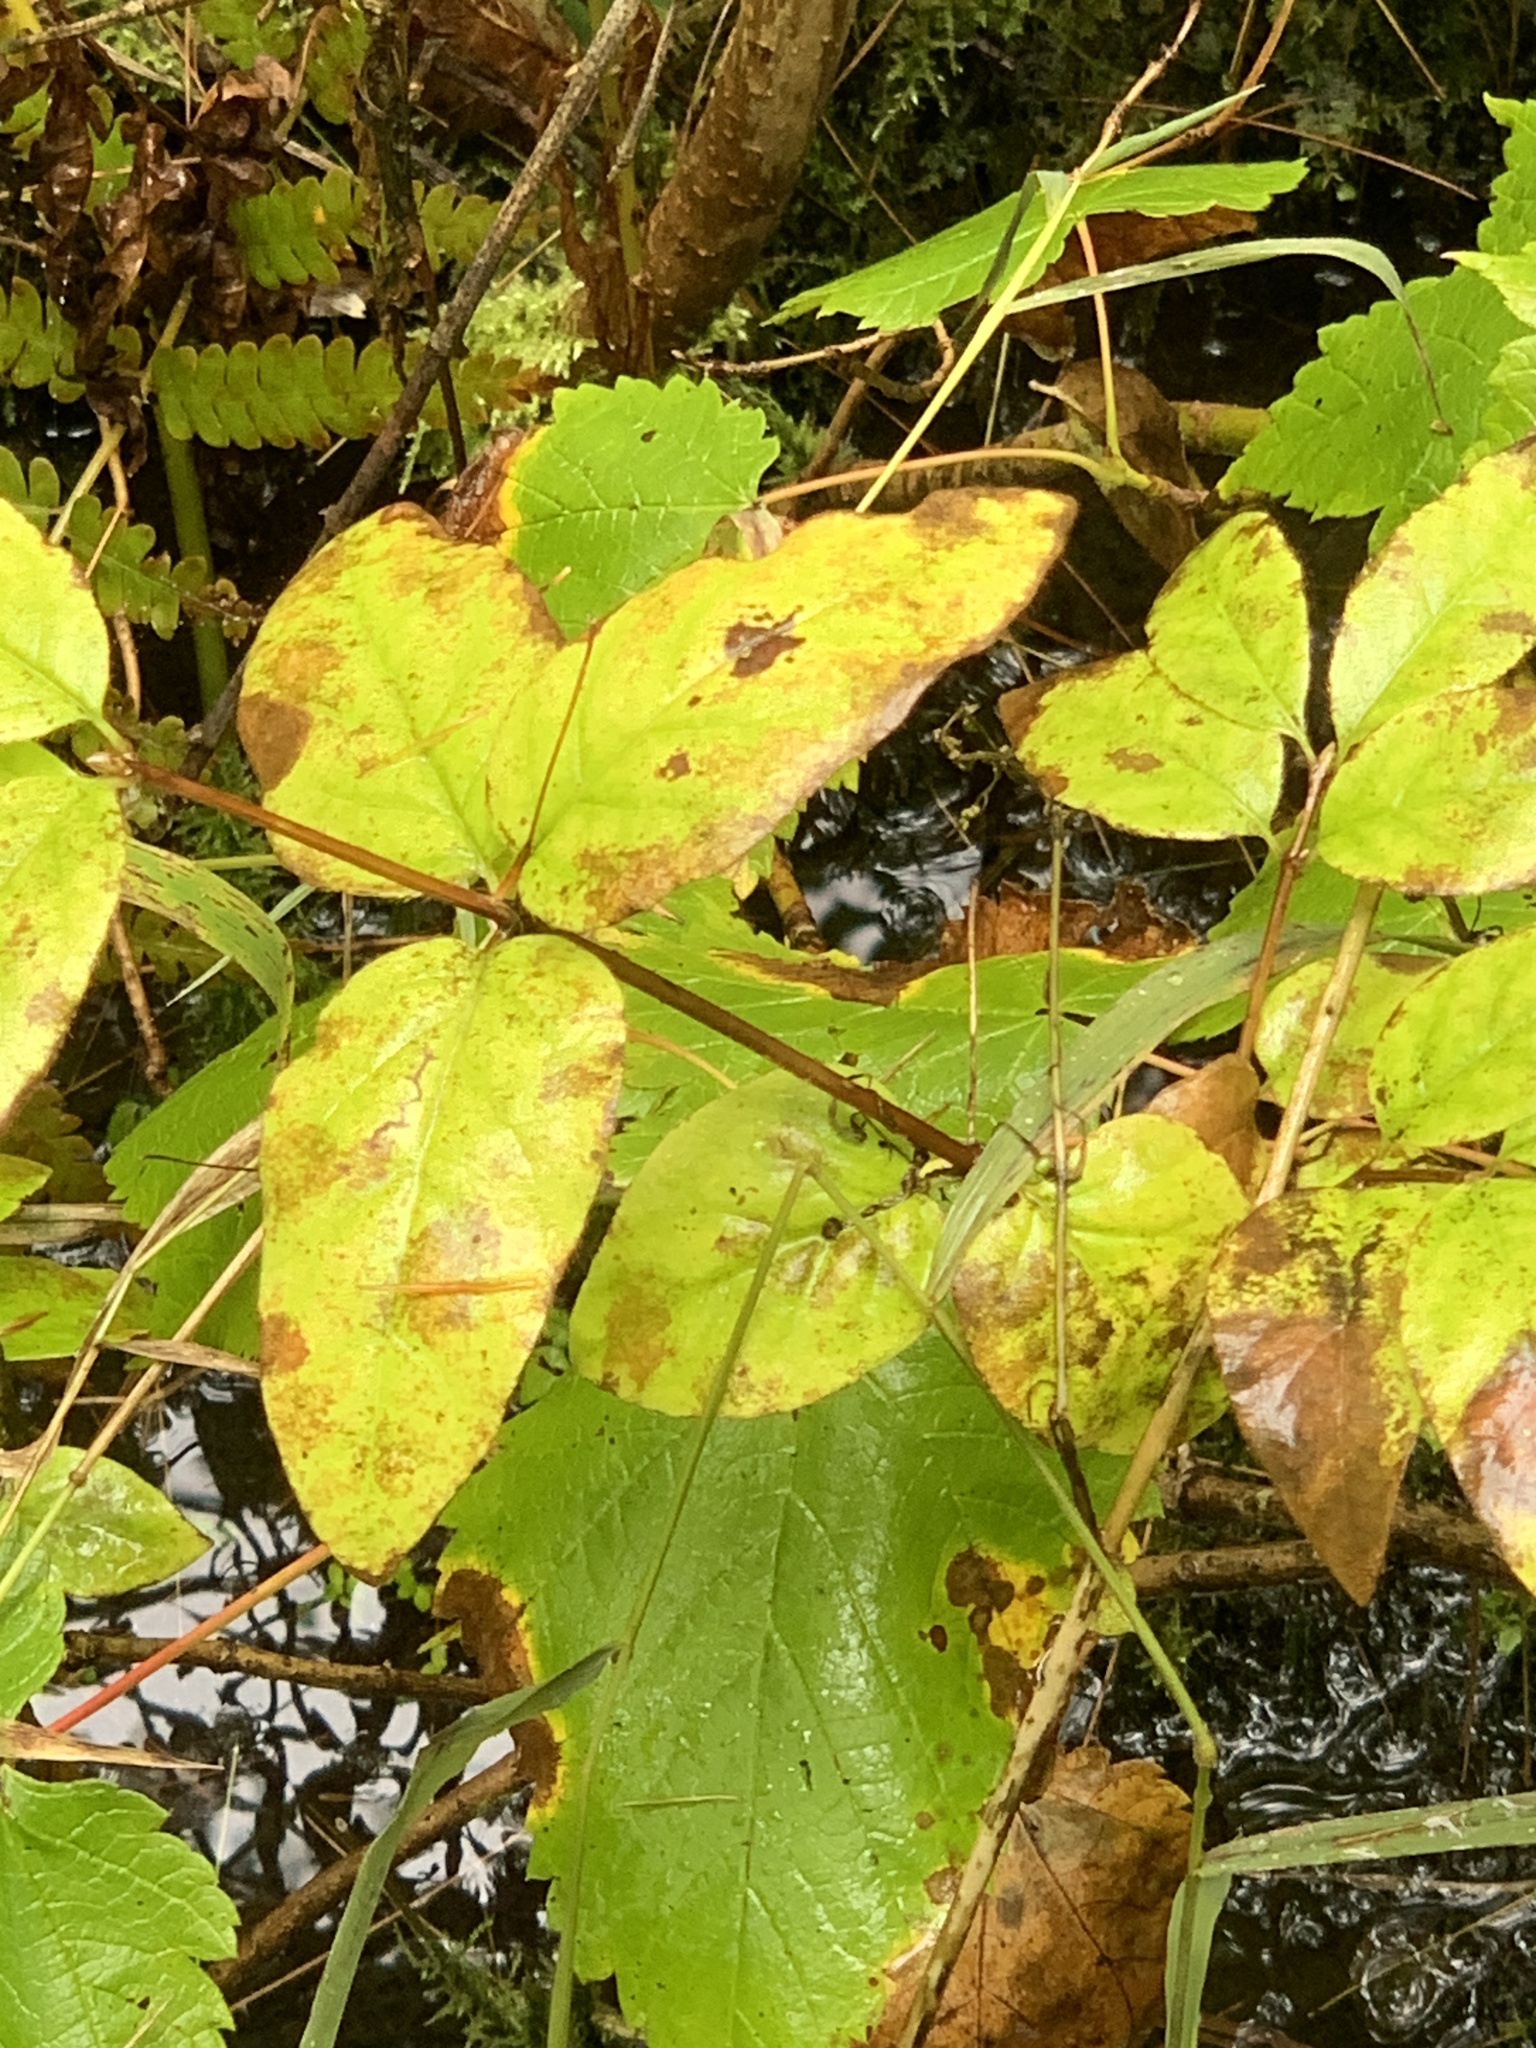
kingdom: Plantae
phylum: Tracheophyta
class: Magnoliopsida
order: Dipsacales
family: Caprifoliaceae
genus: Lonicera
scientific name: Lonicera canadensis
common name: American fly-honeysuckle
